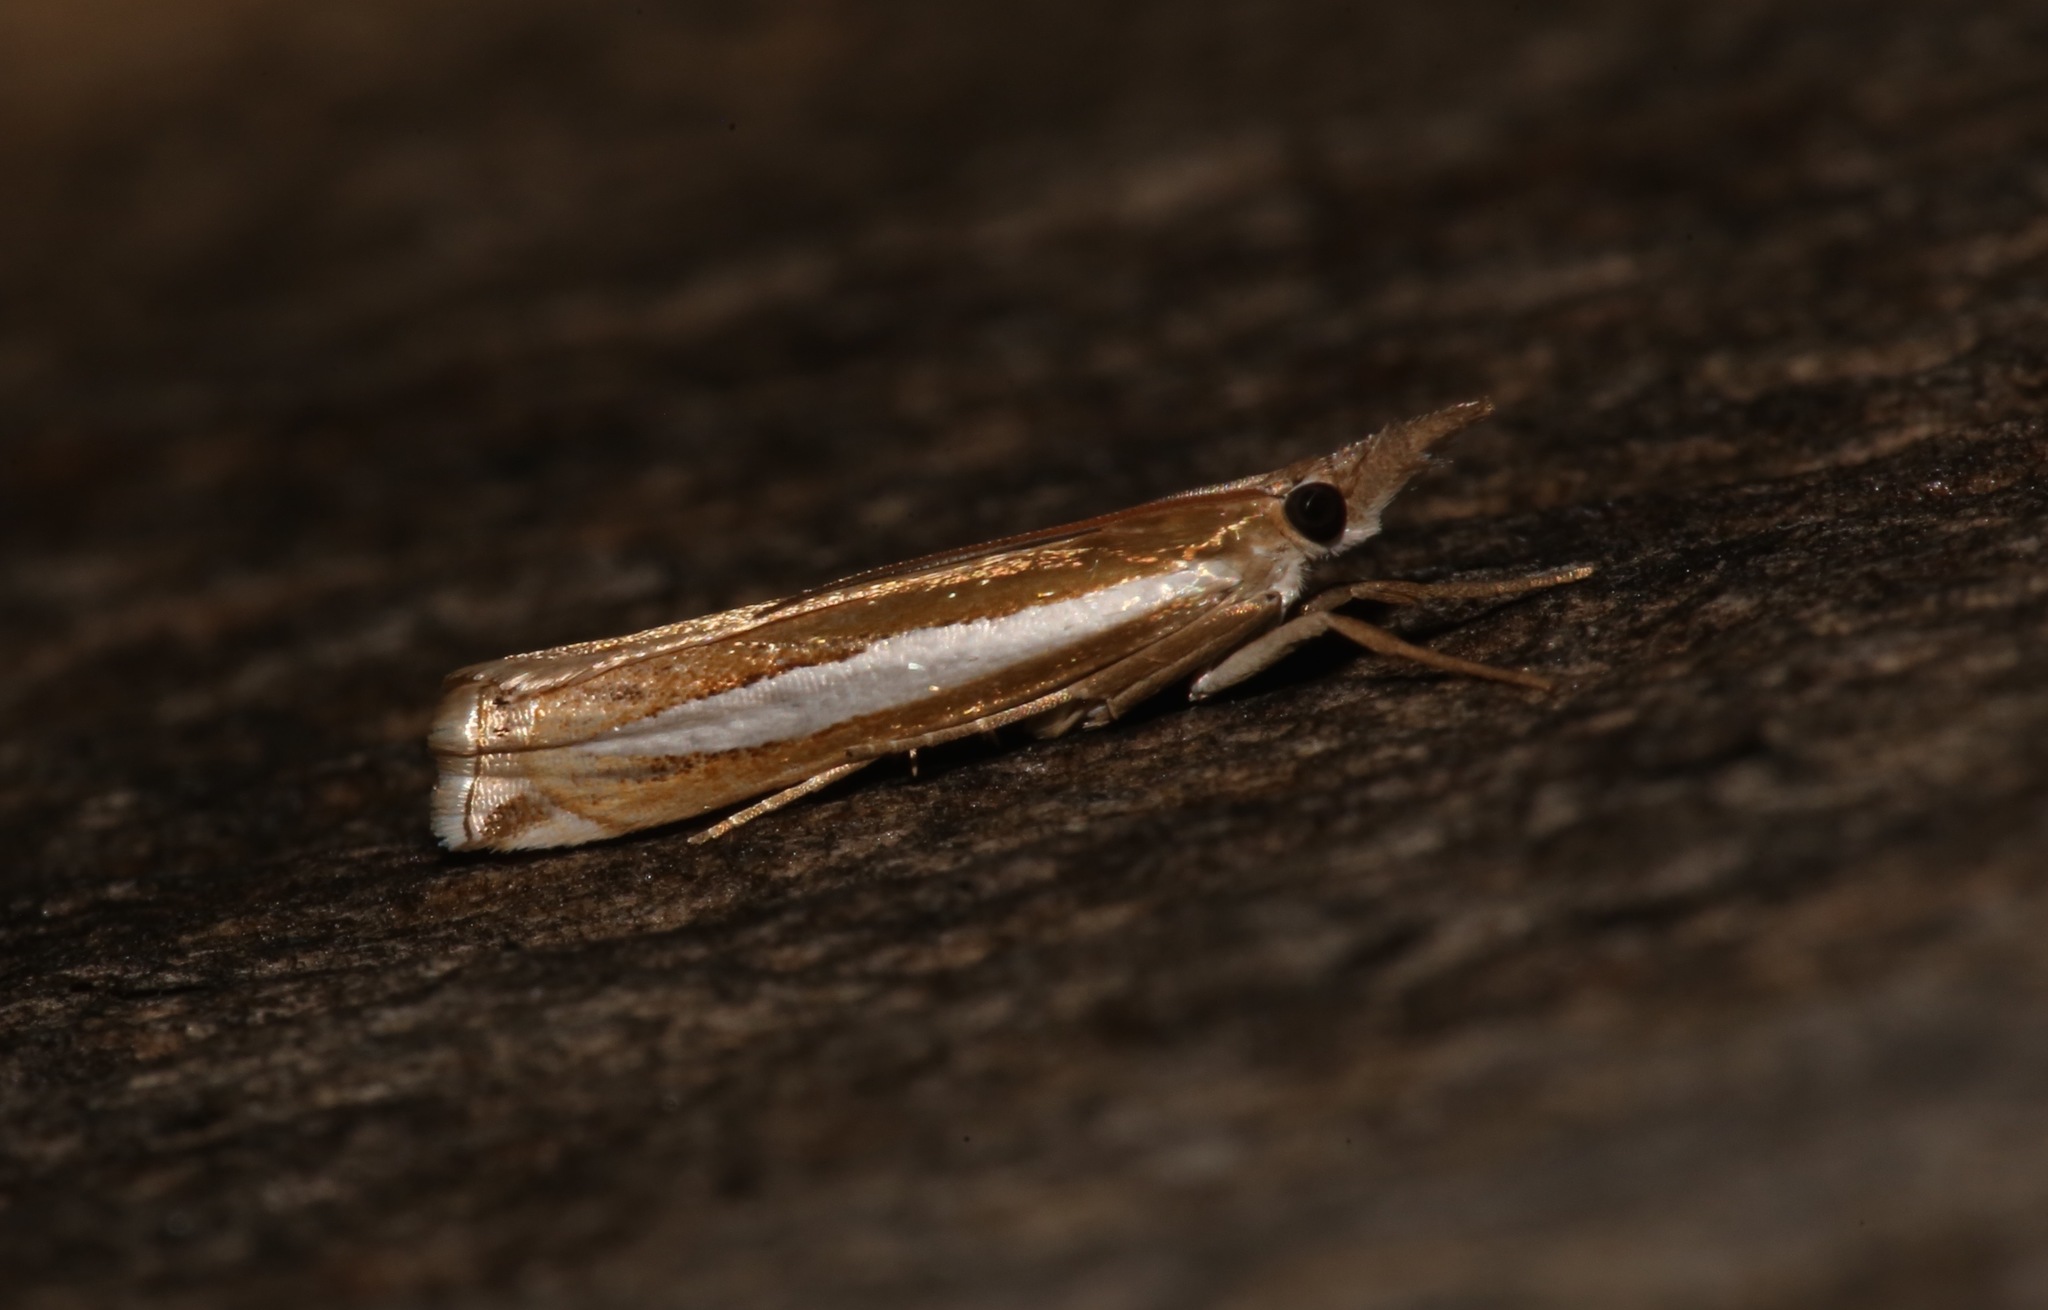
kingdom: Animalia
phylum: Arthropoda
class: Insecta
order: Lepidoptera
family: Crambidae
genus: Crambus
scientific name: Crambus praefectellus
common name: Common grass-veneer
